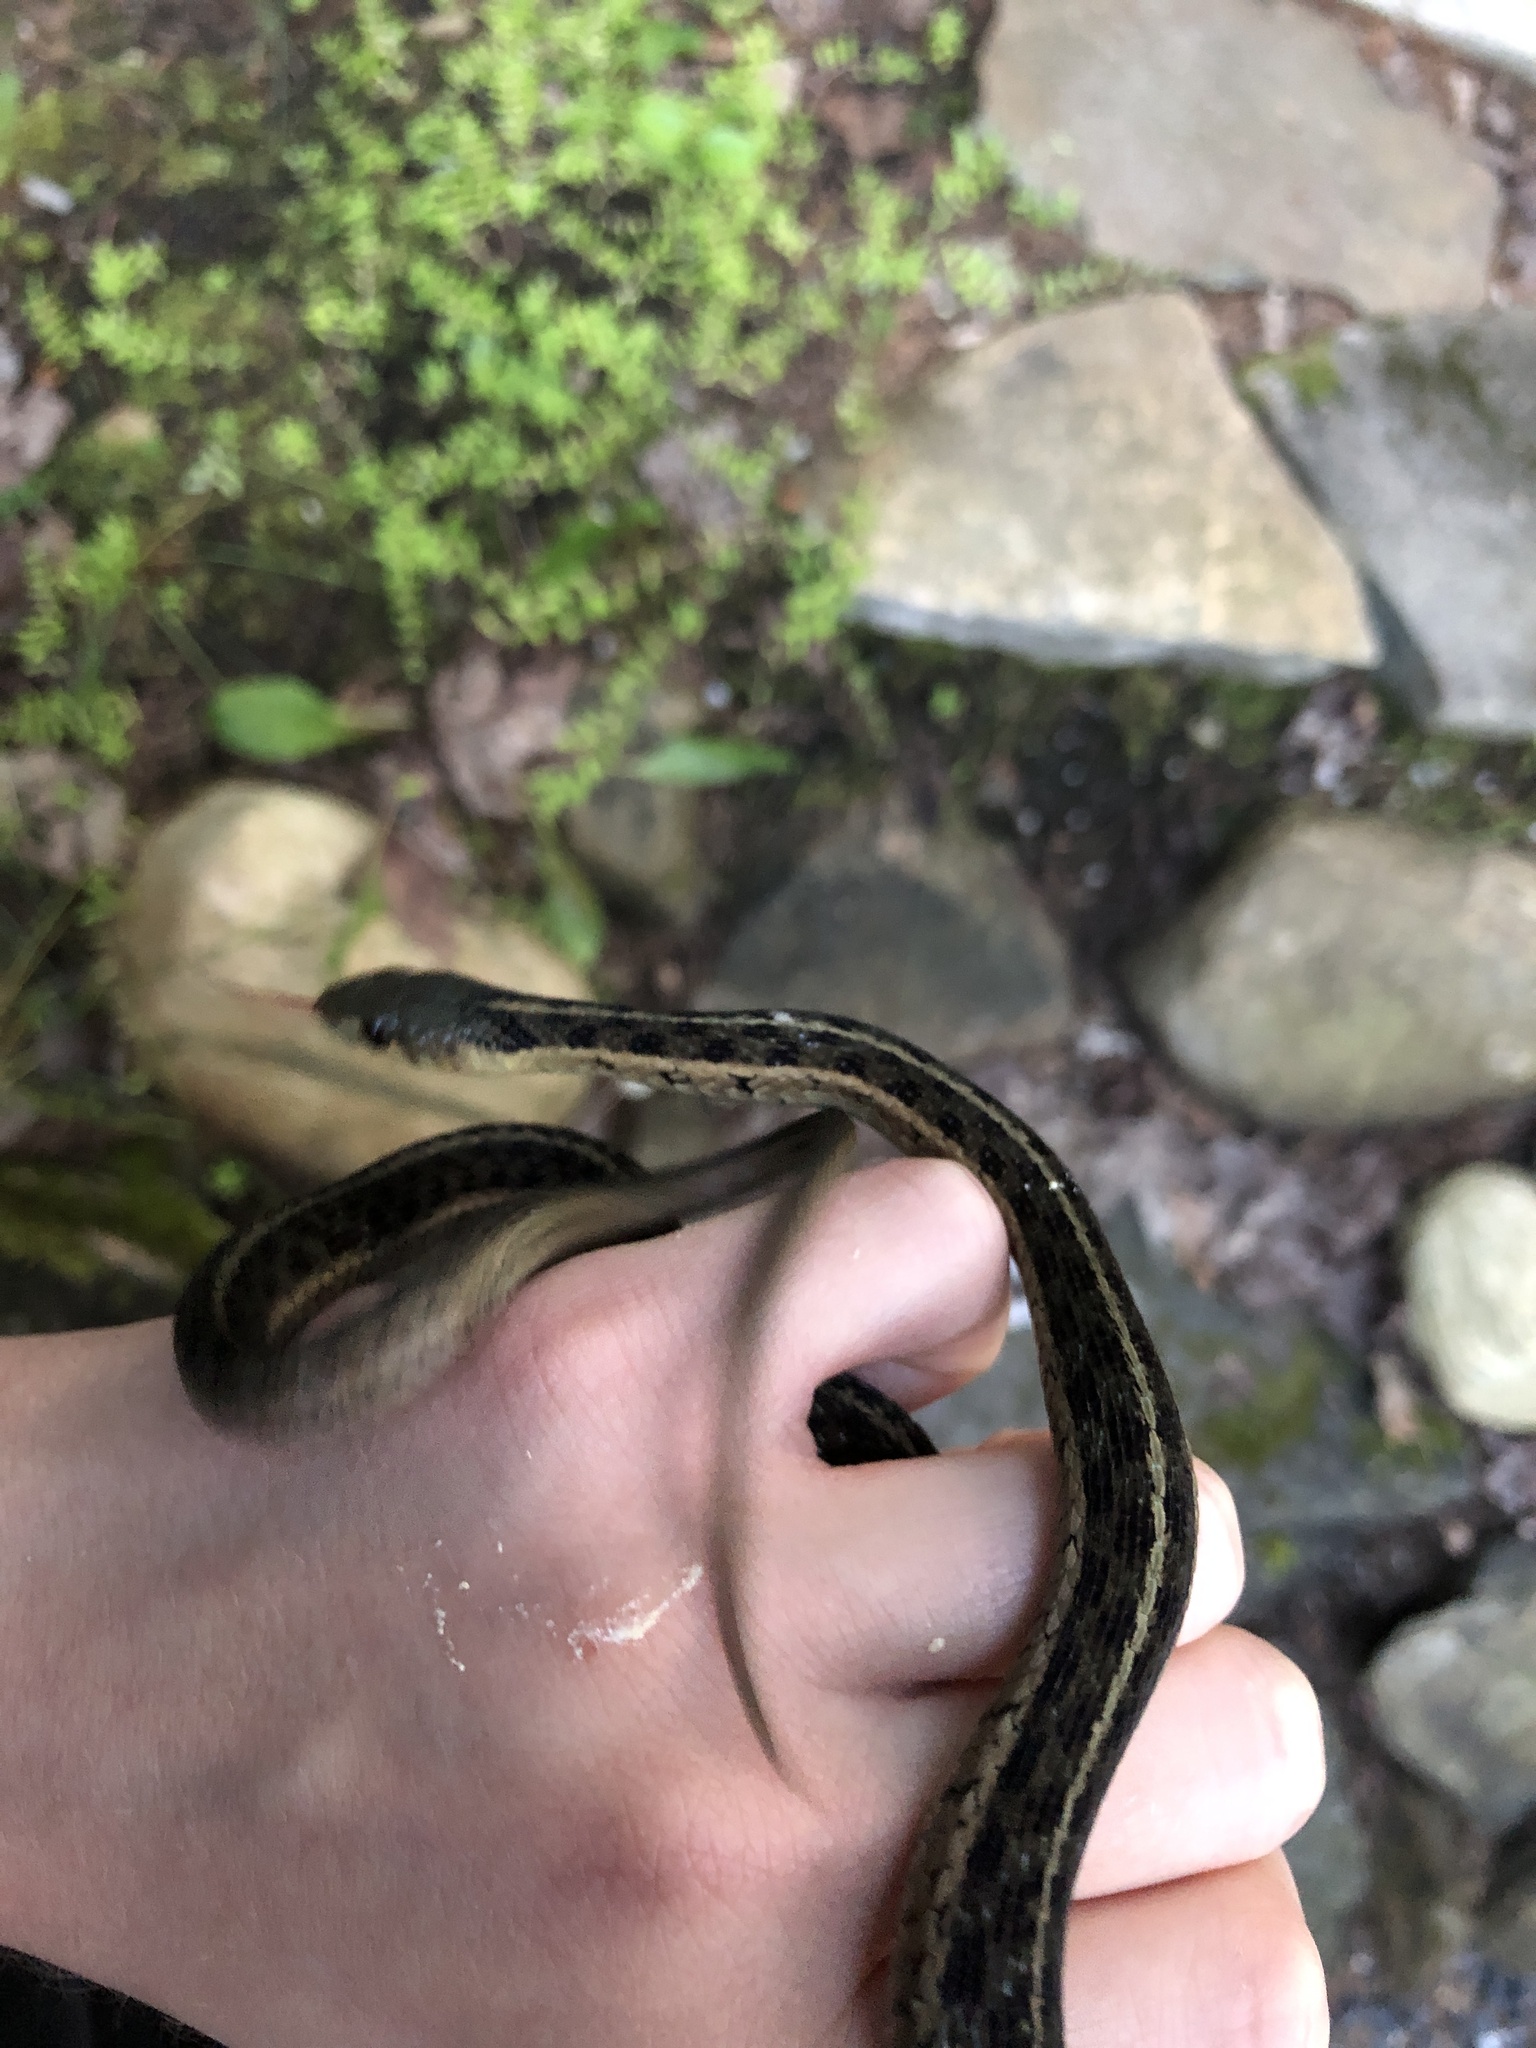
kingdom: Animalia
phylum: Chordata
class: Squamata
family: Colubridae
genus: Thamnophis
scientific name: Thamnophis sirtalis
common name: Common garter snake
